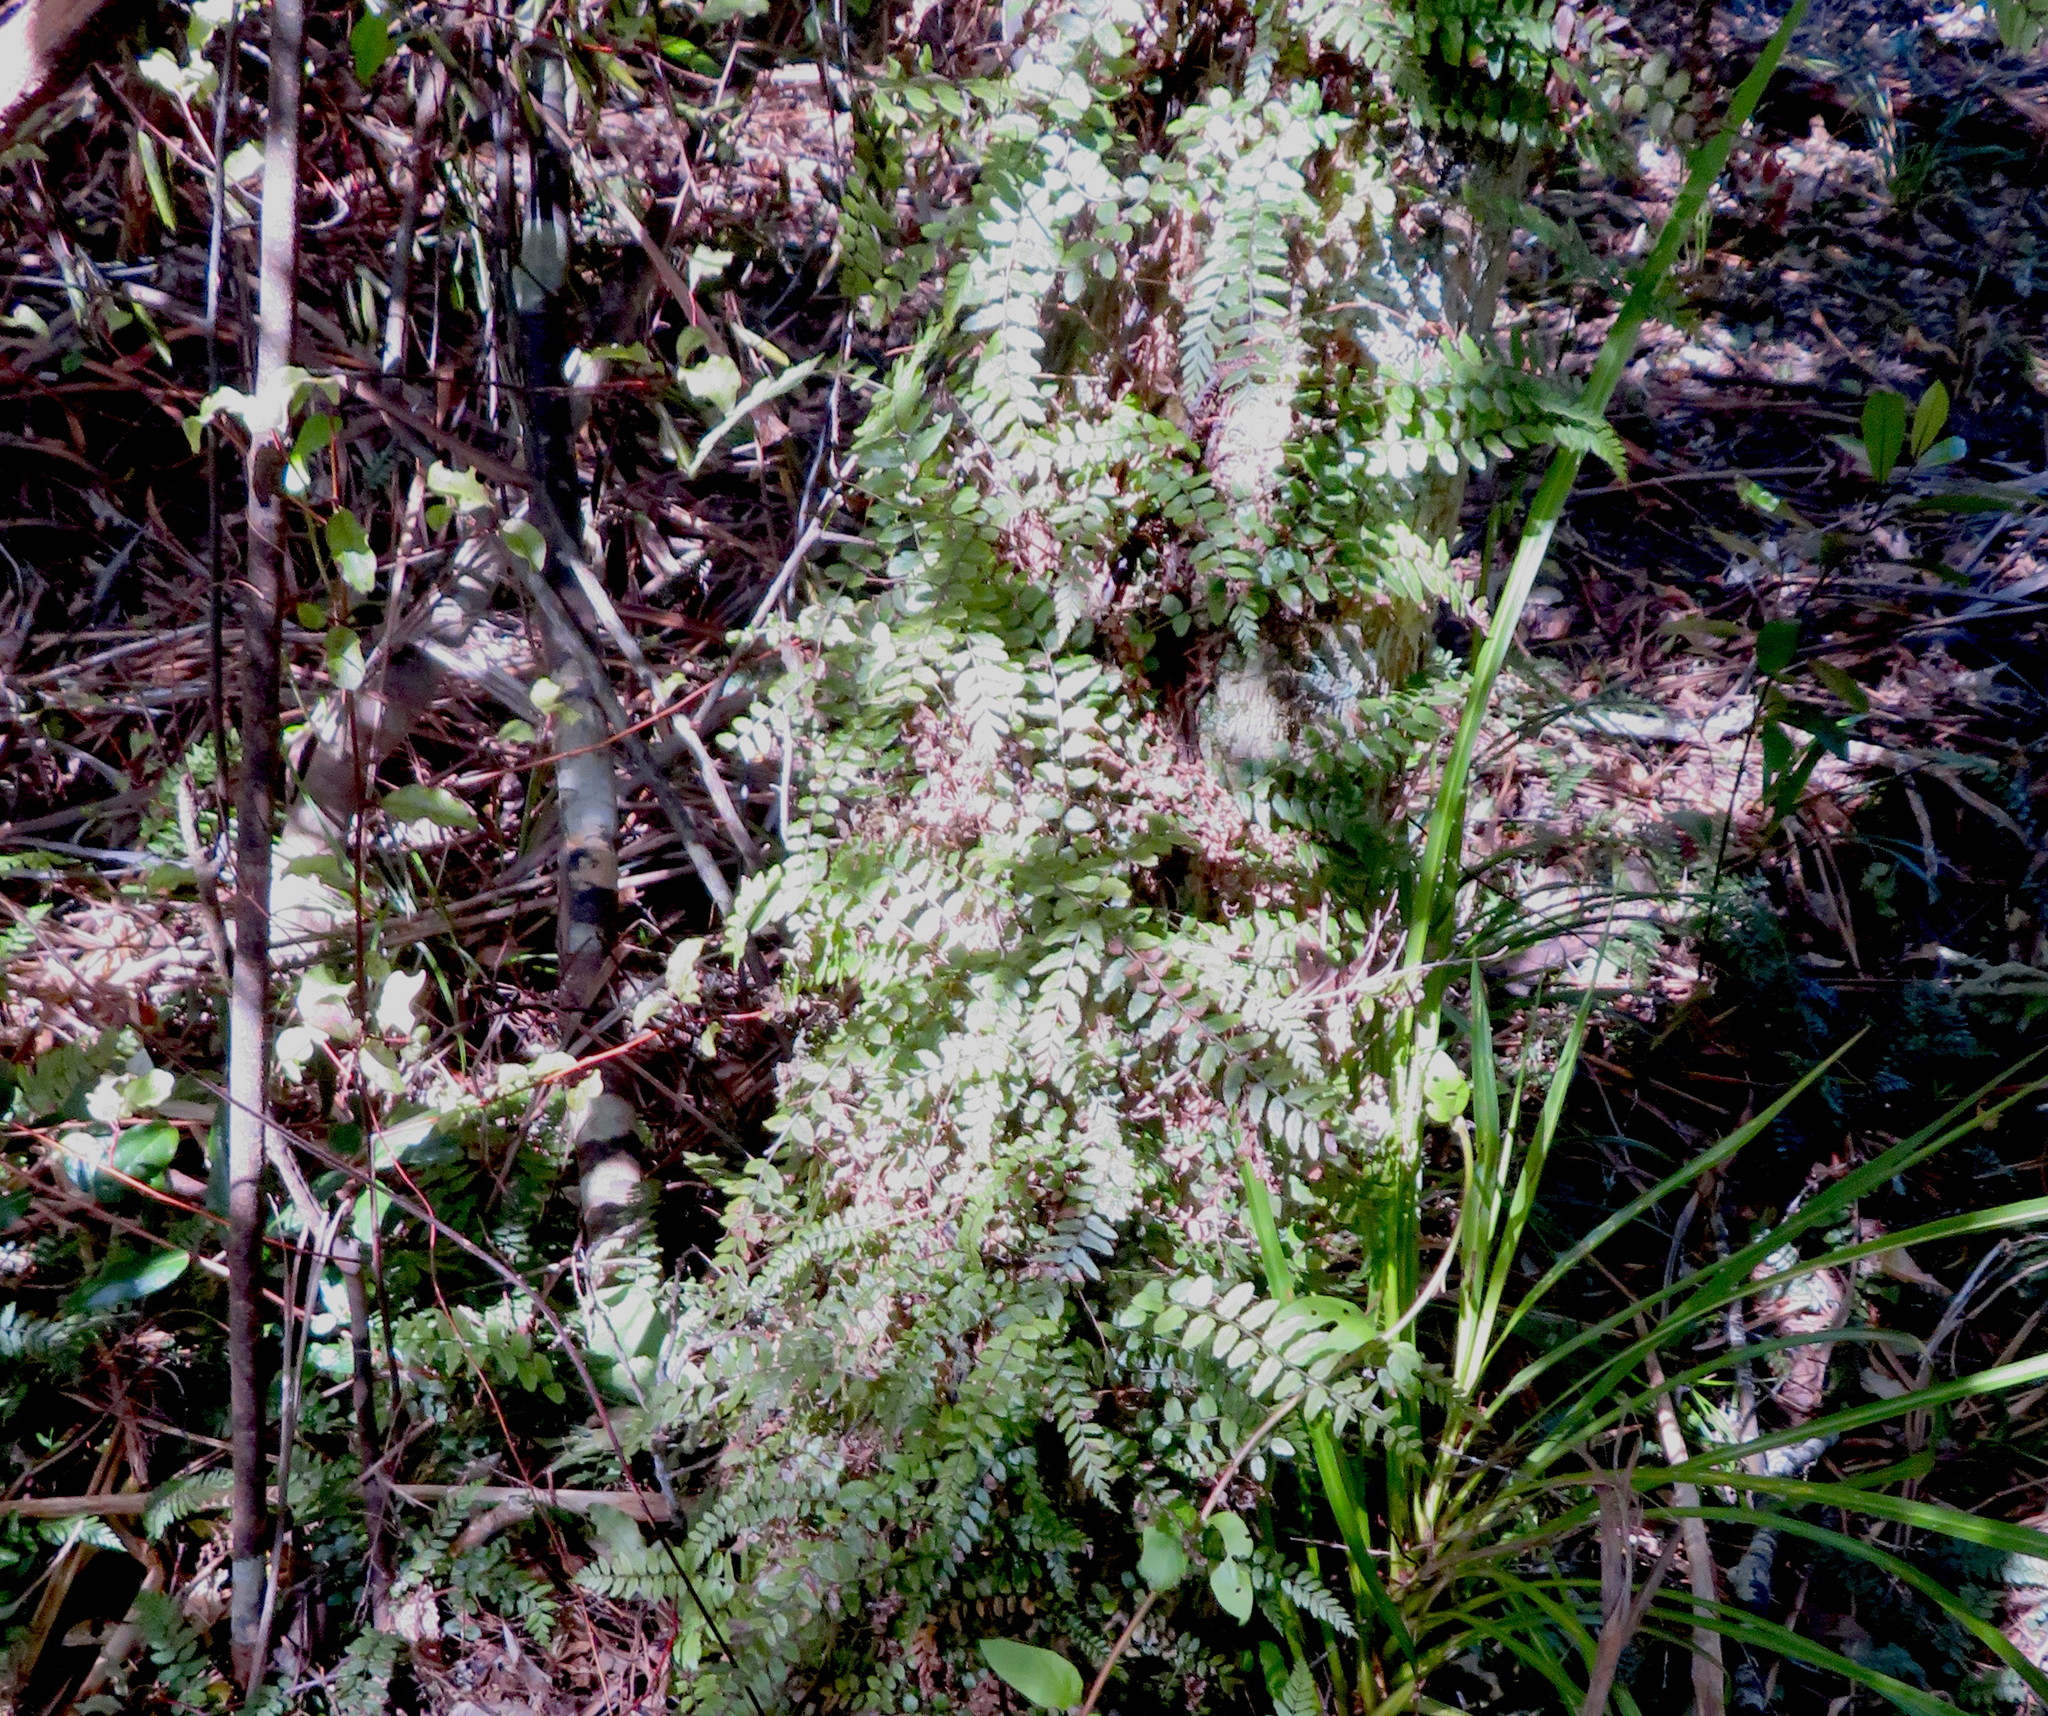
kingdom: Plantae
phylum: Tracheophyta
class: Polypodiopsida
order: Polypodiales
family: Blechnaceae
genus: Icarus
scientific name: Icarus filiformis
